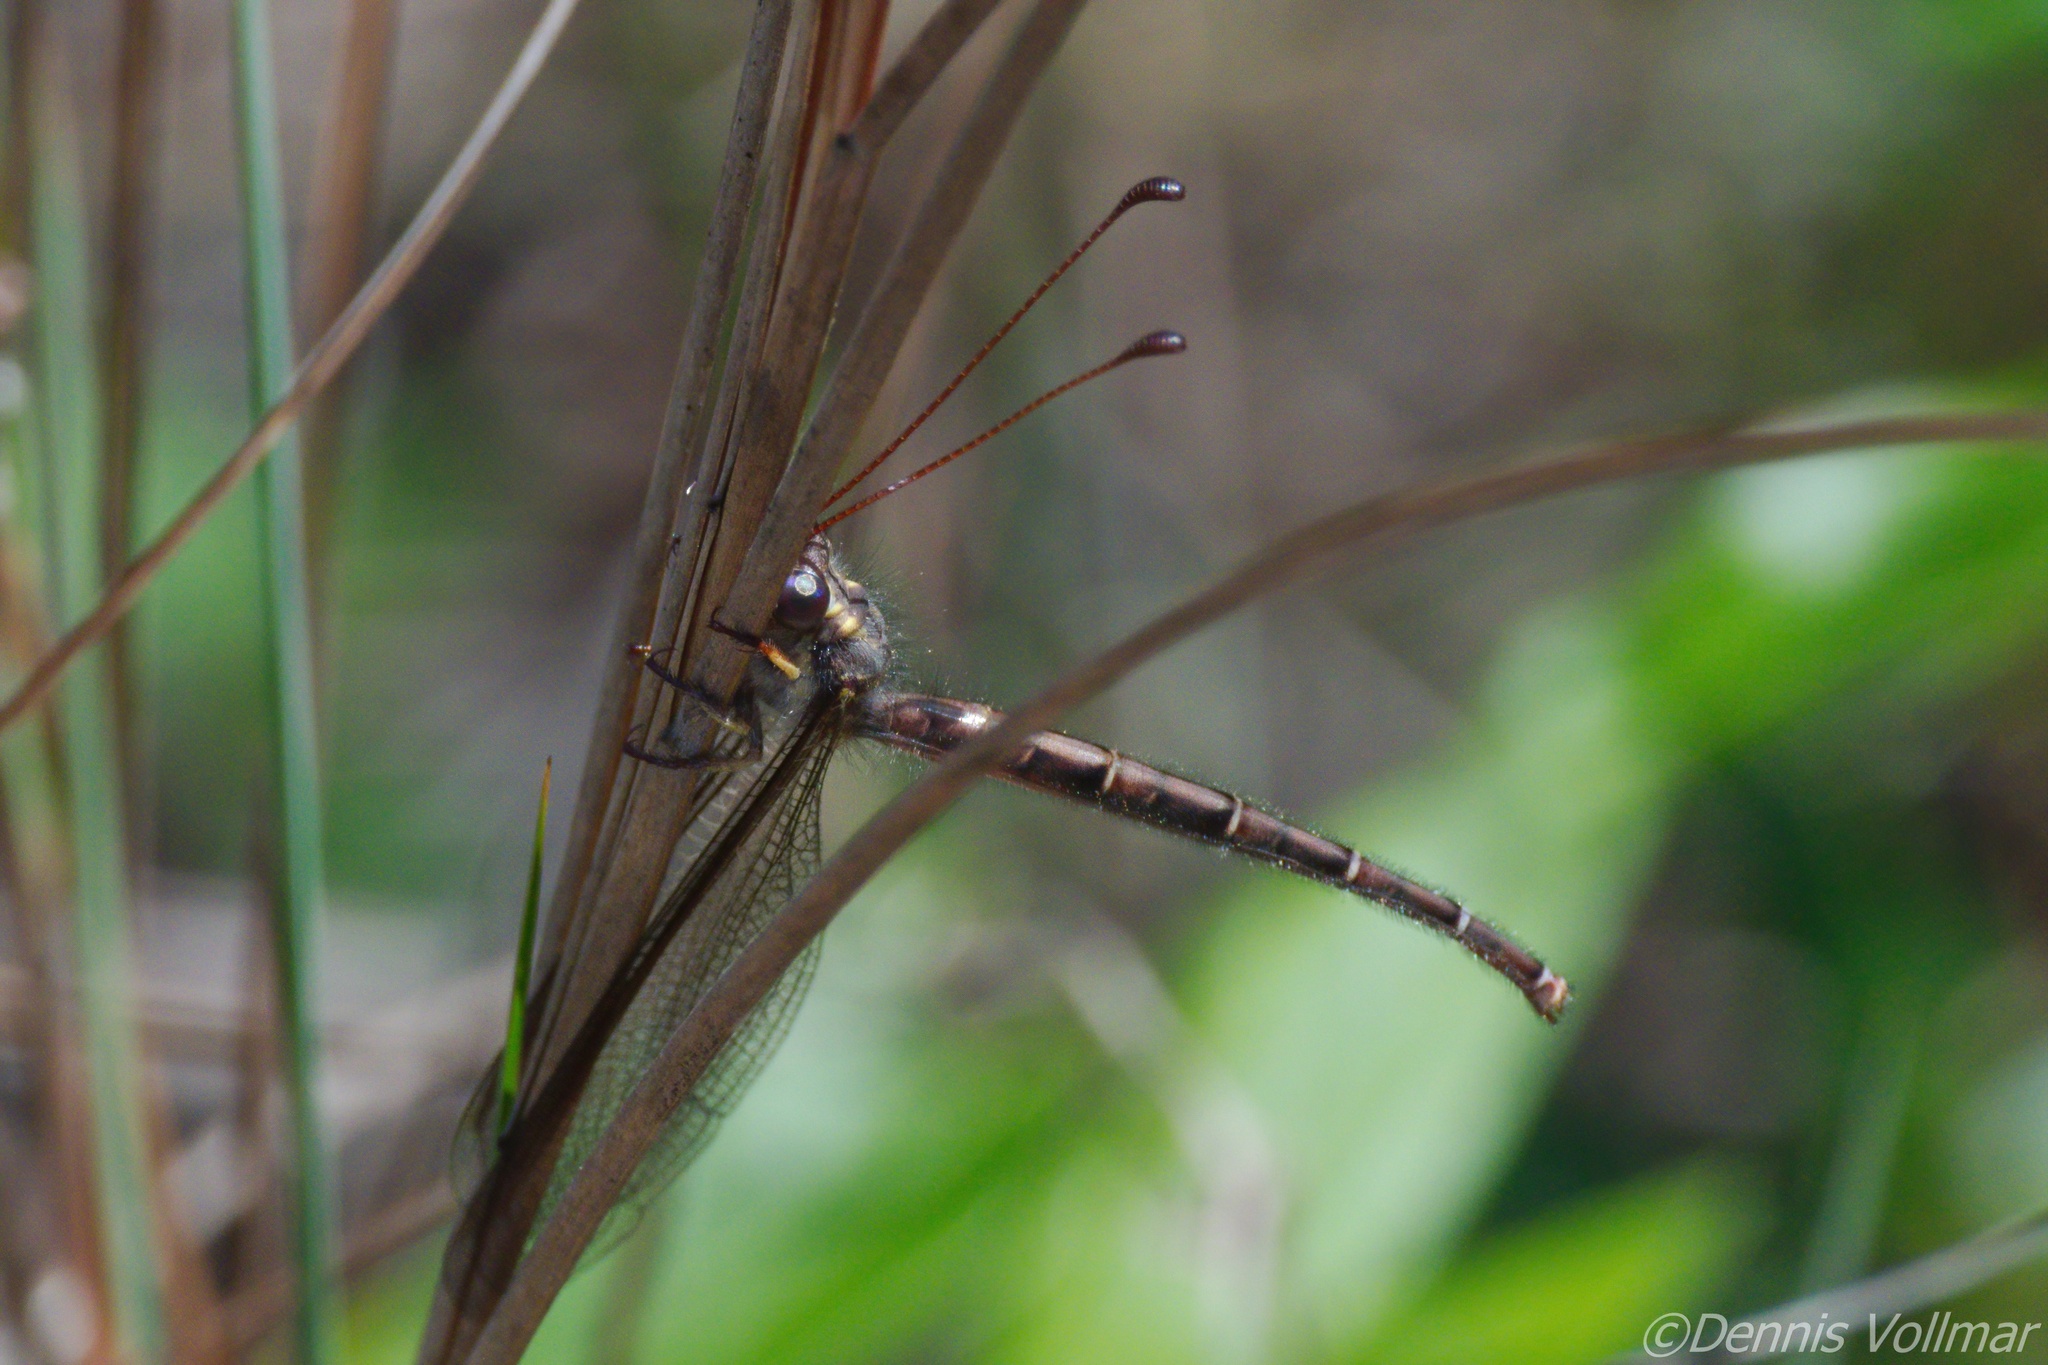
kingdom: Animalia
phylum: Arthropoda
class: Insecta
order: Neuroptera
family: Ascalaphidae
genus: Ascaloptynx
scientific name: Ascaloptynx appendiculata
